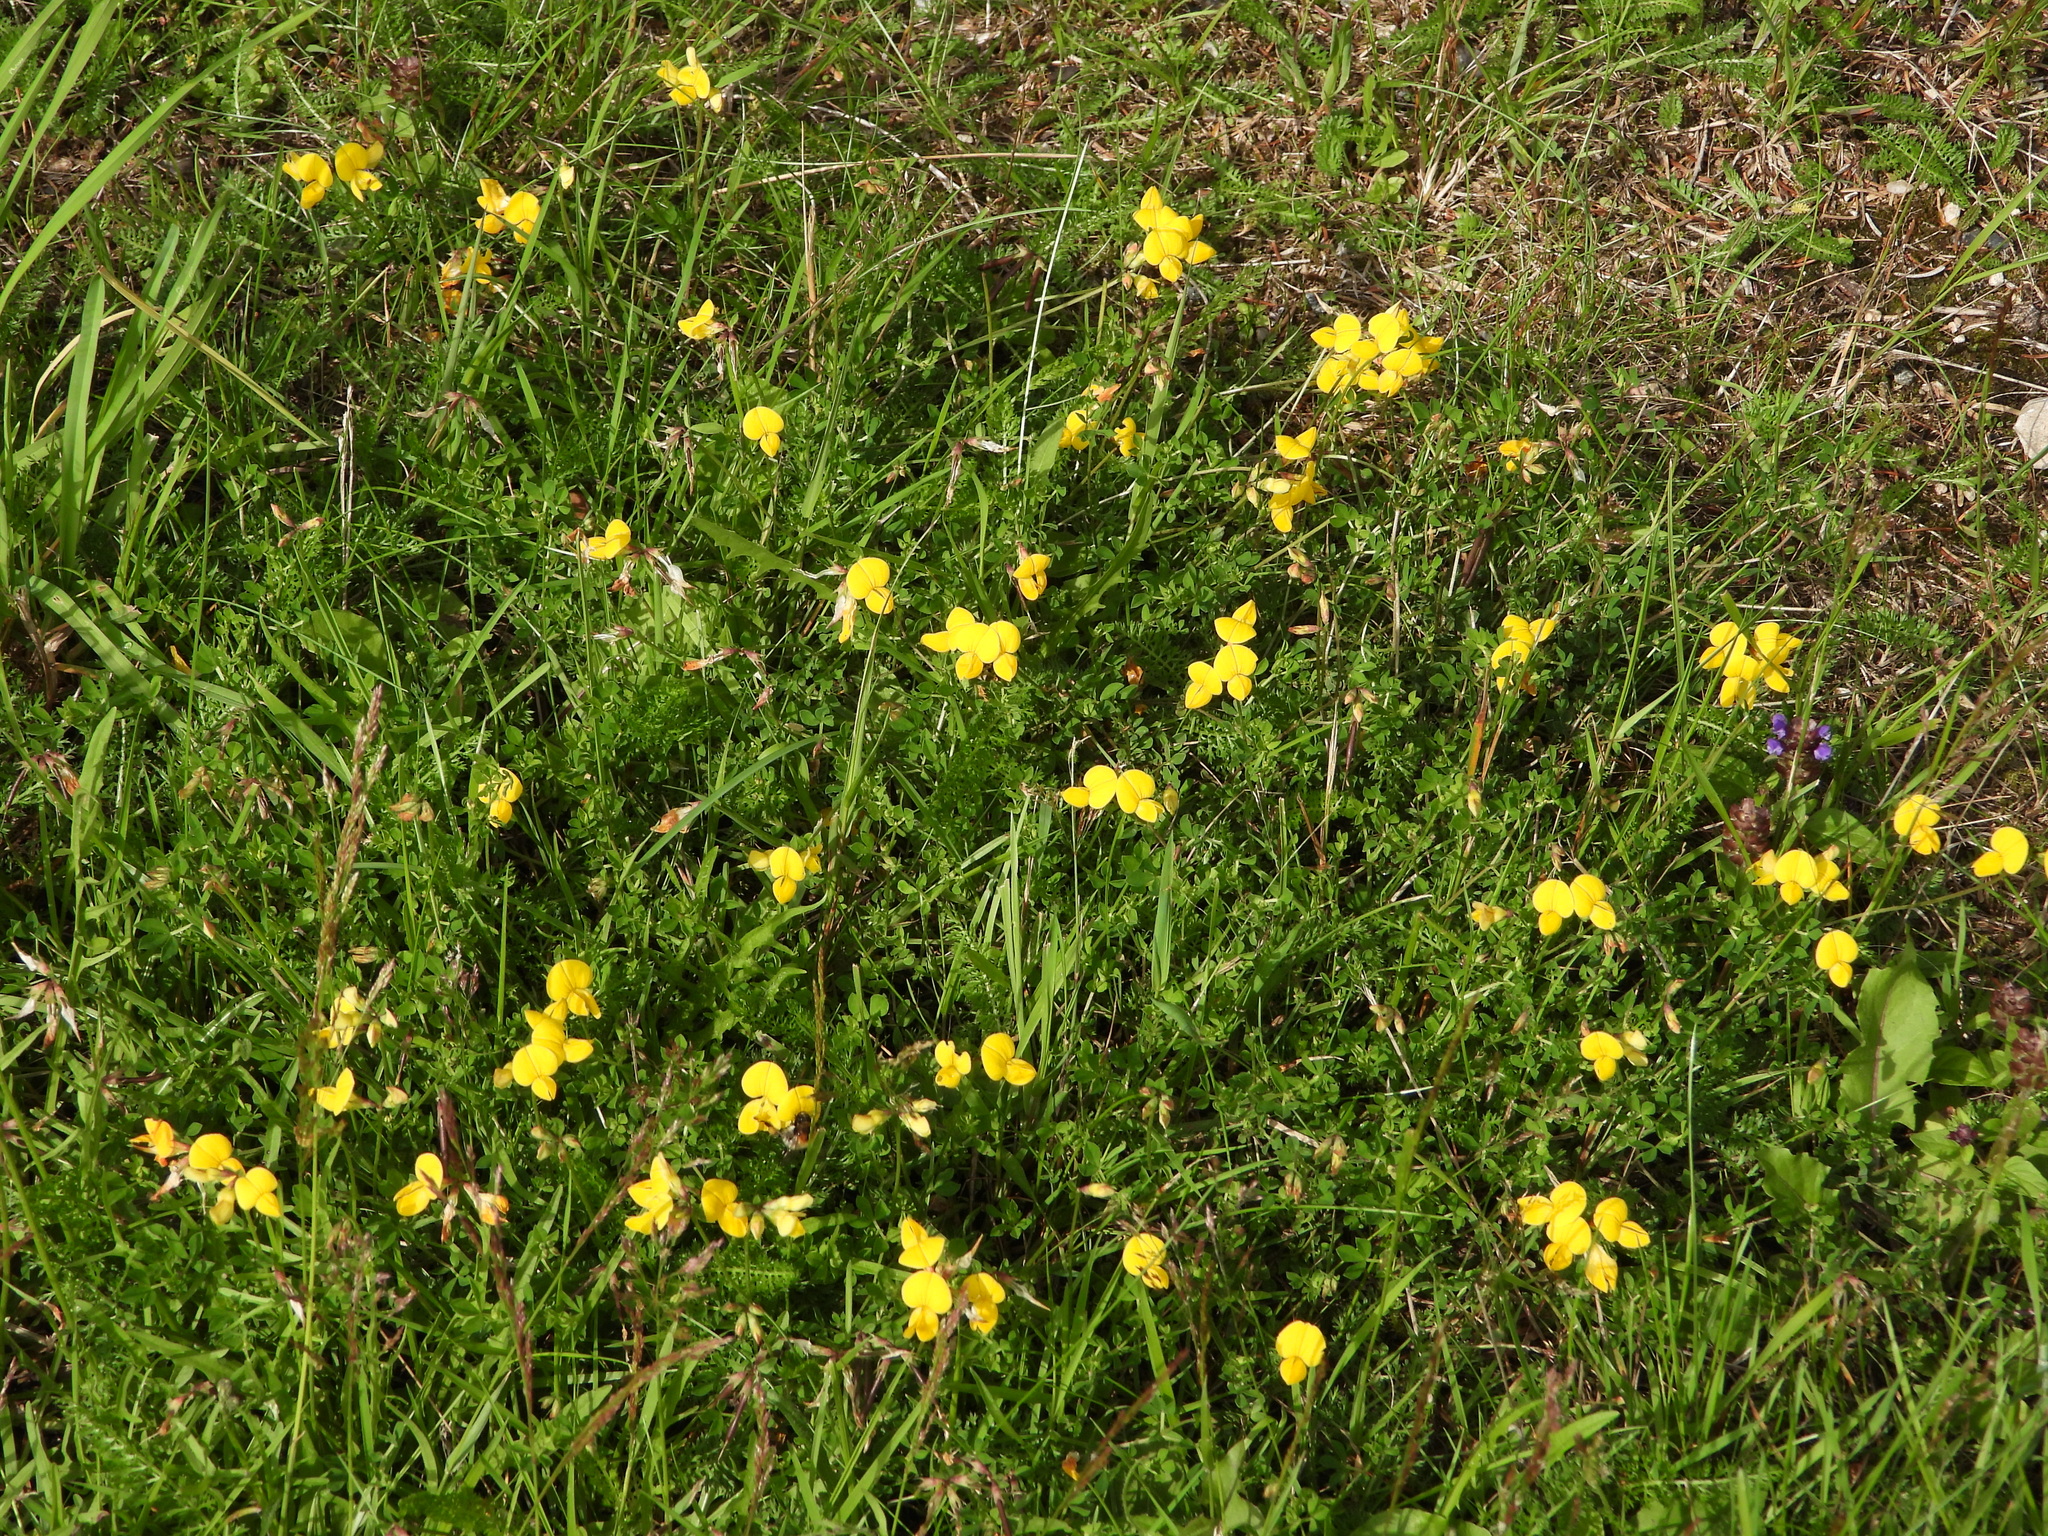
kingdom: Plantae
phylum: Tracheophyta
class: Magnoliopsida
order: Fabales
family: Fabaceae
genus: Lotus
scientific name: Lotus corniculatus
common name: Common bird's-foot-trefoil
